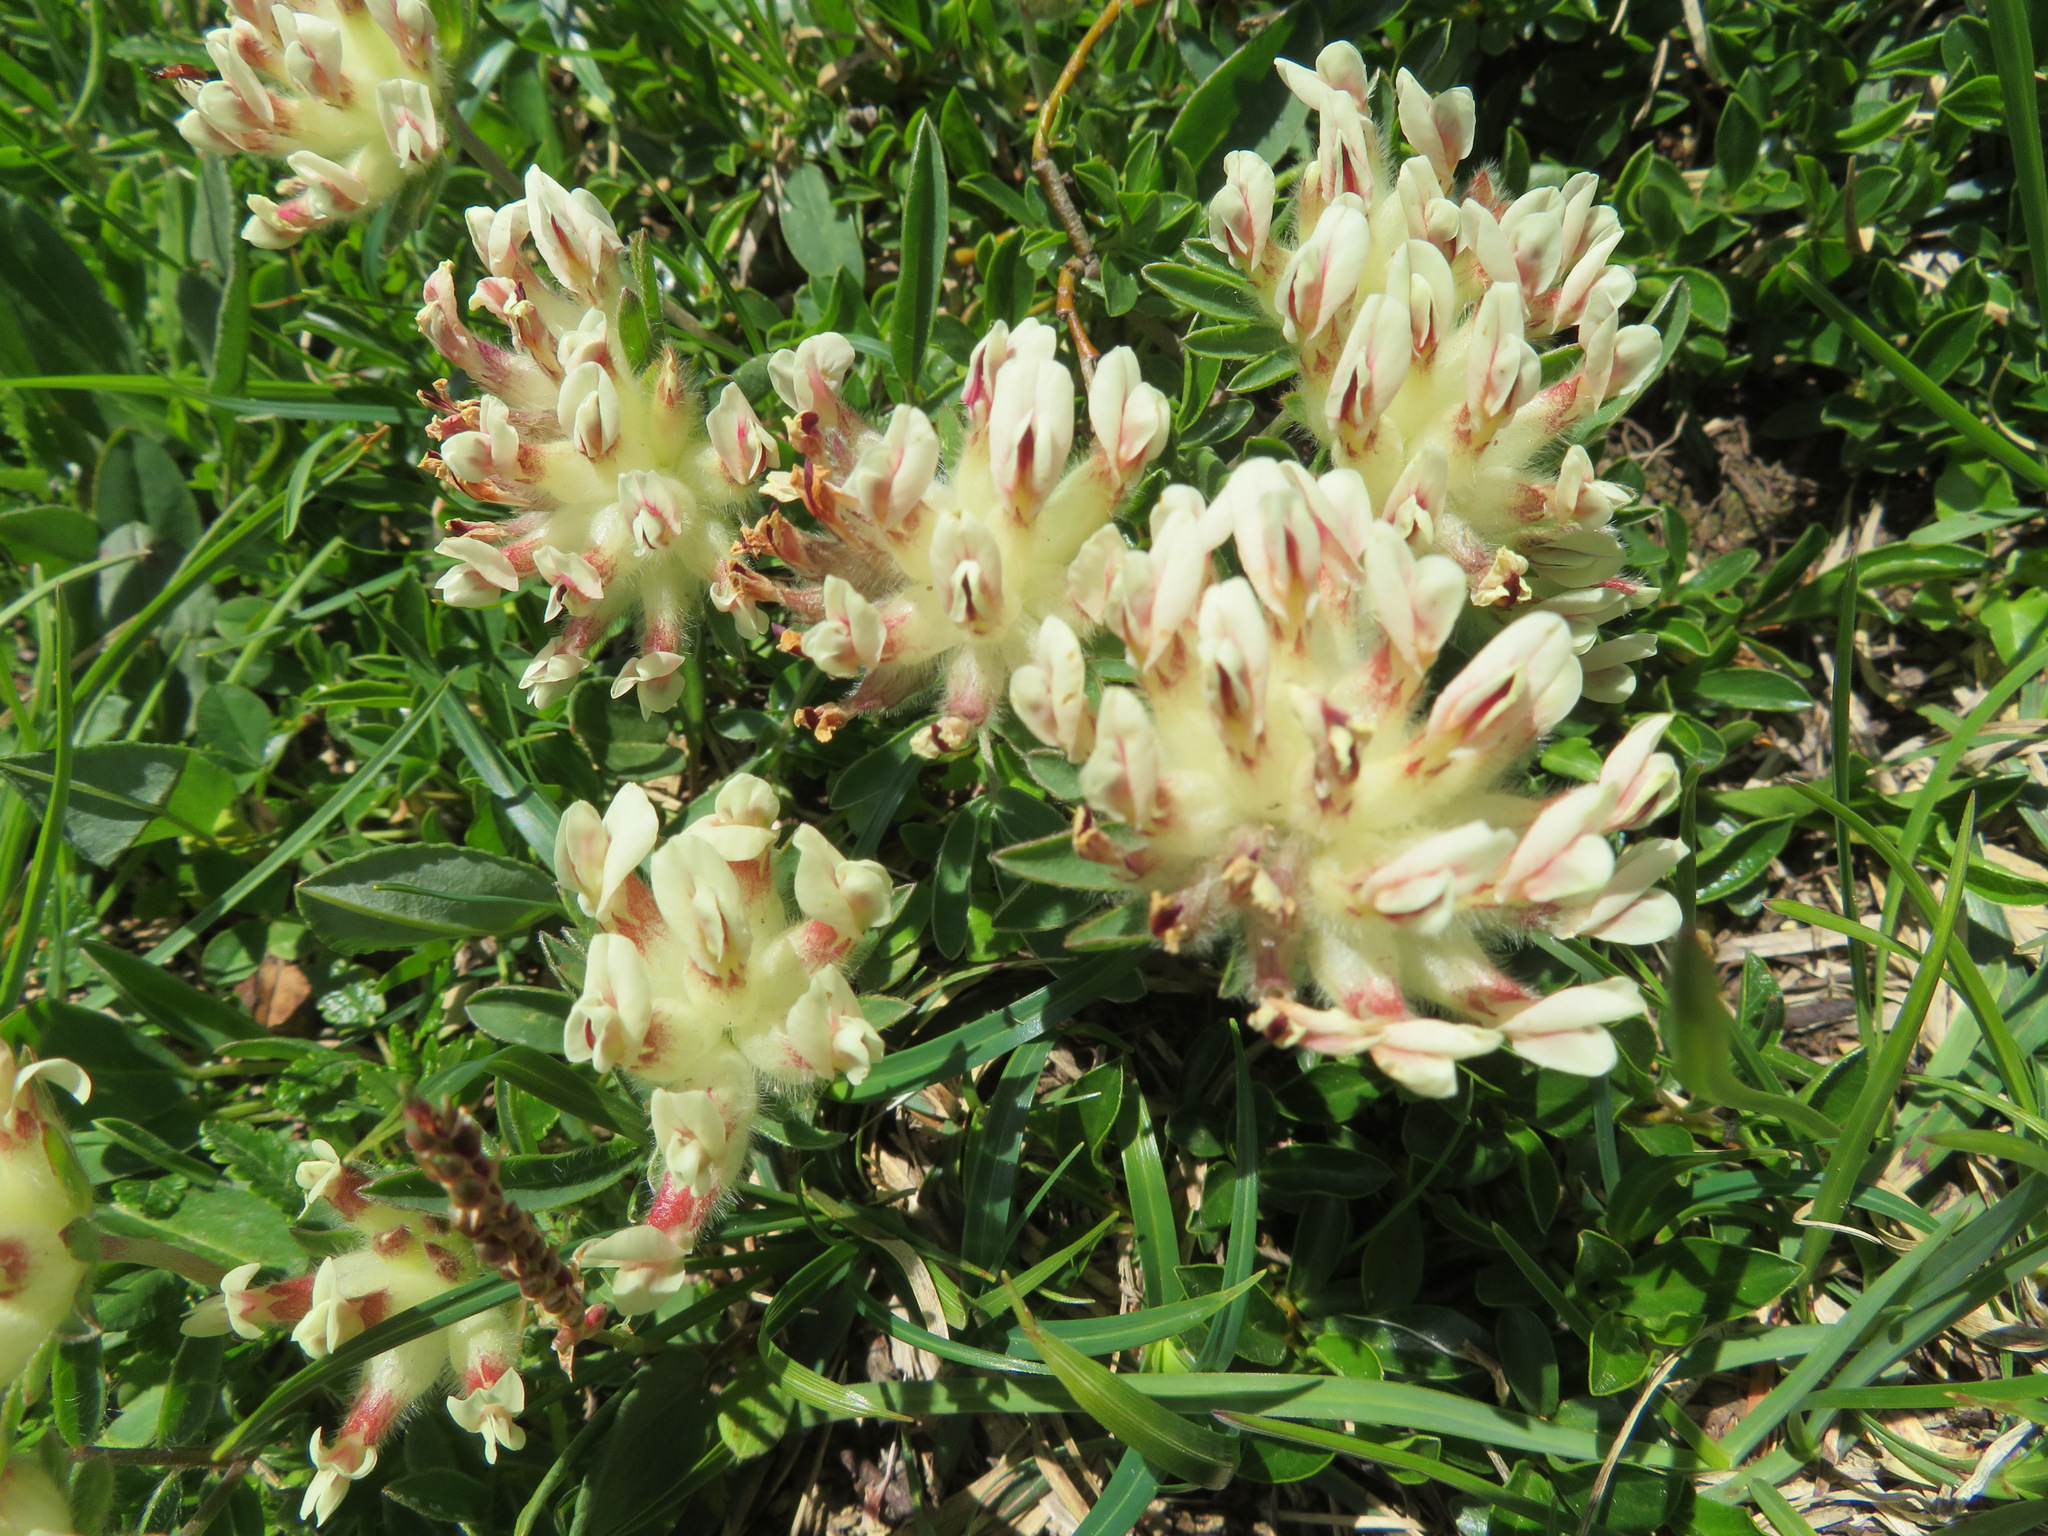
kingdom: Plantae
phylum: Tracheophyta
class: Magnoliopsida
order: Fabales
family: Fabaceae
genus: Anthyllis
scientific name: Anthyllis vulneraria
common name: Kidney vetch
